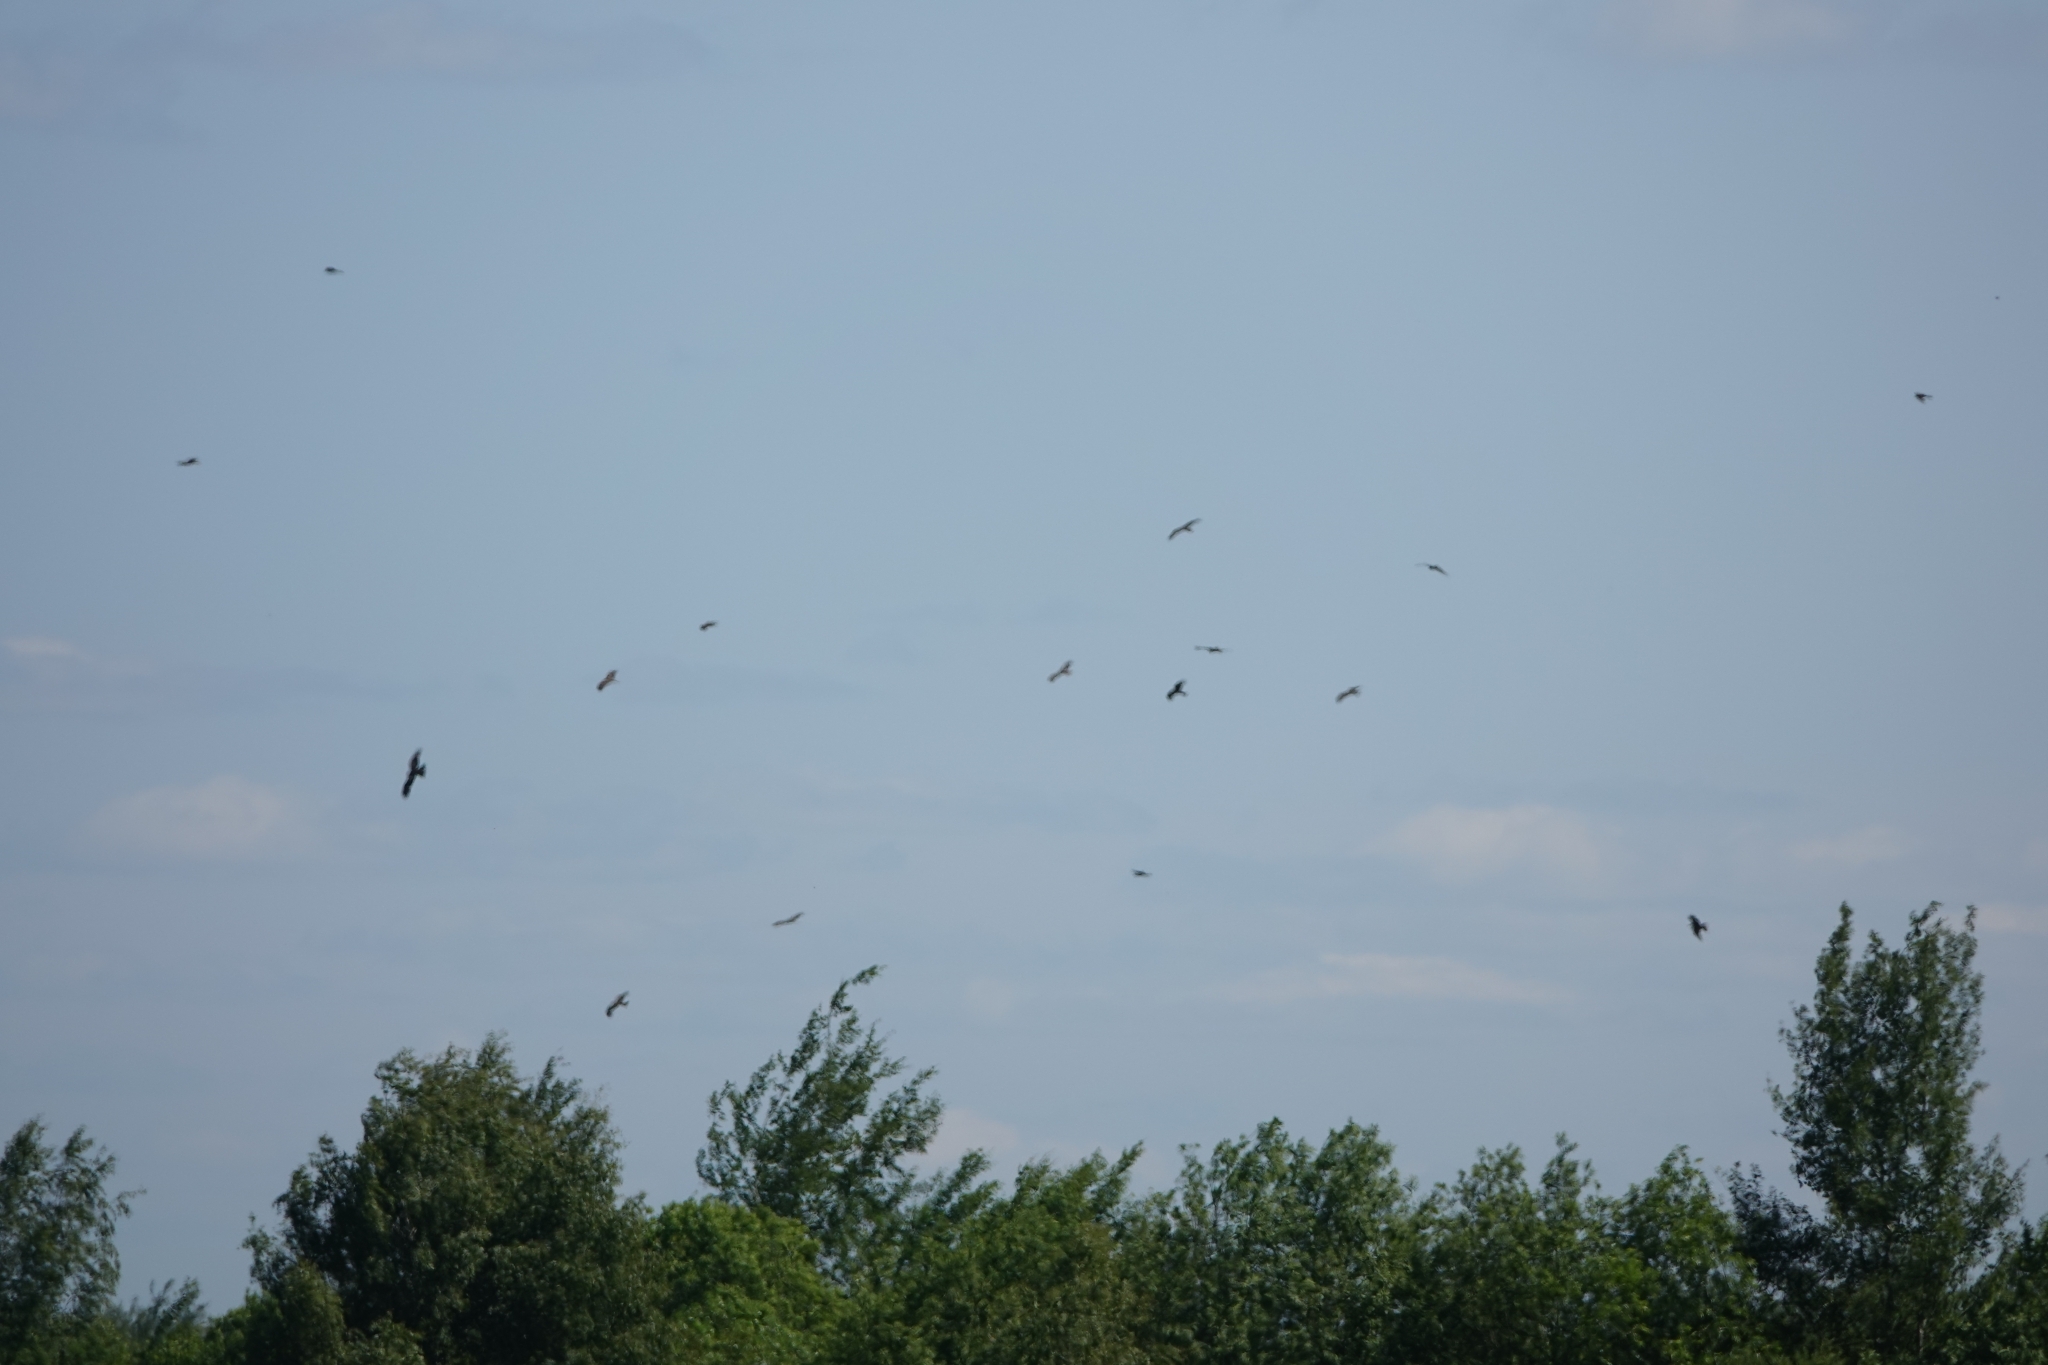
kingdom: Animalia
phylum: Chordata
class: Aves
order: Accipitriformes
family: Accipitridae
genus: Milvus
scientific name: Milvus migrans
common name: Black kite
